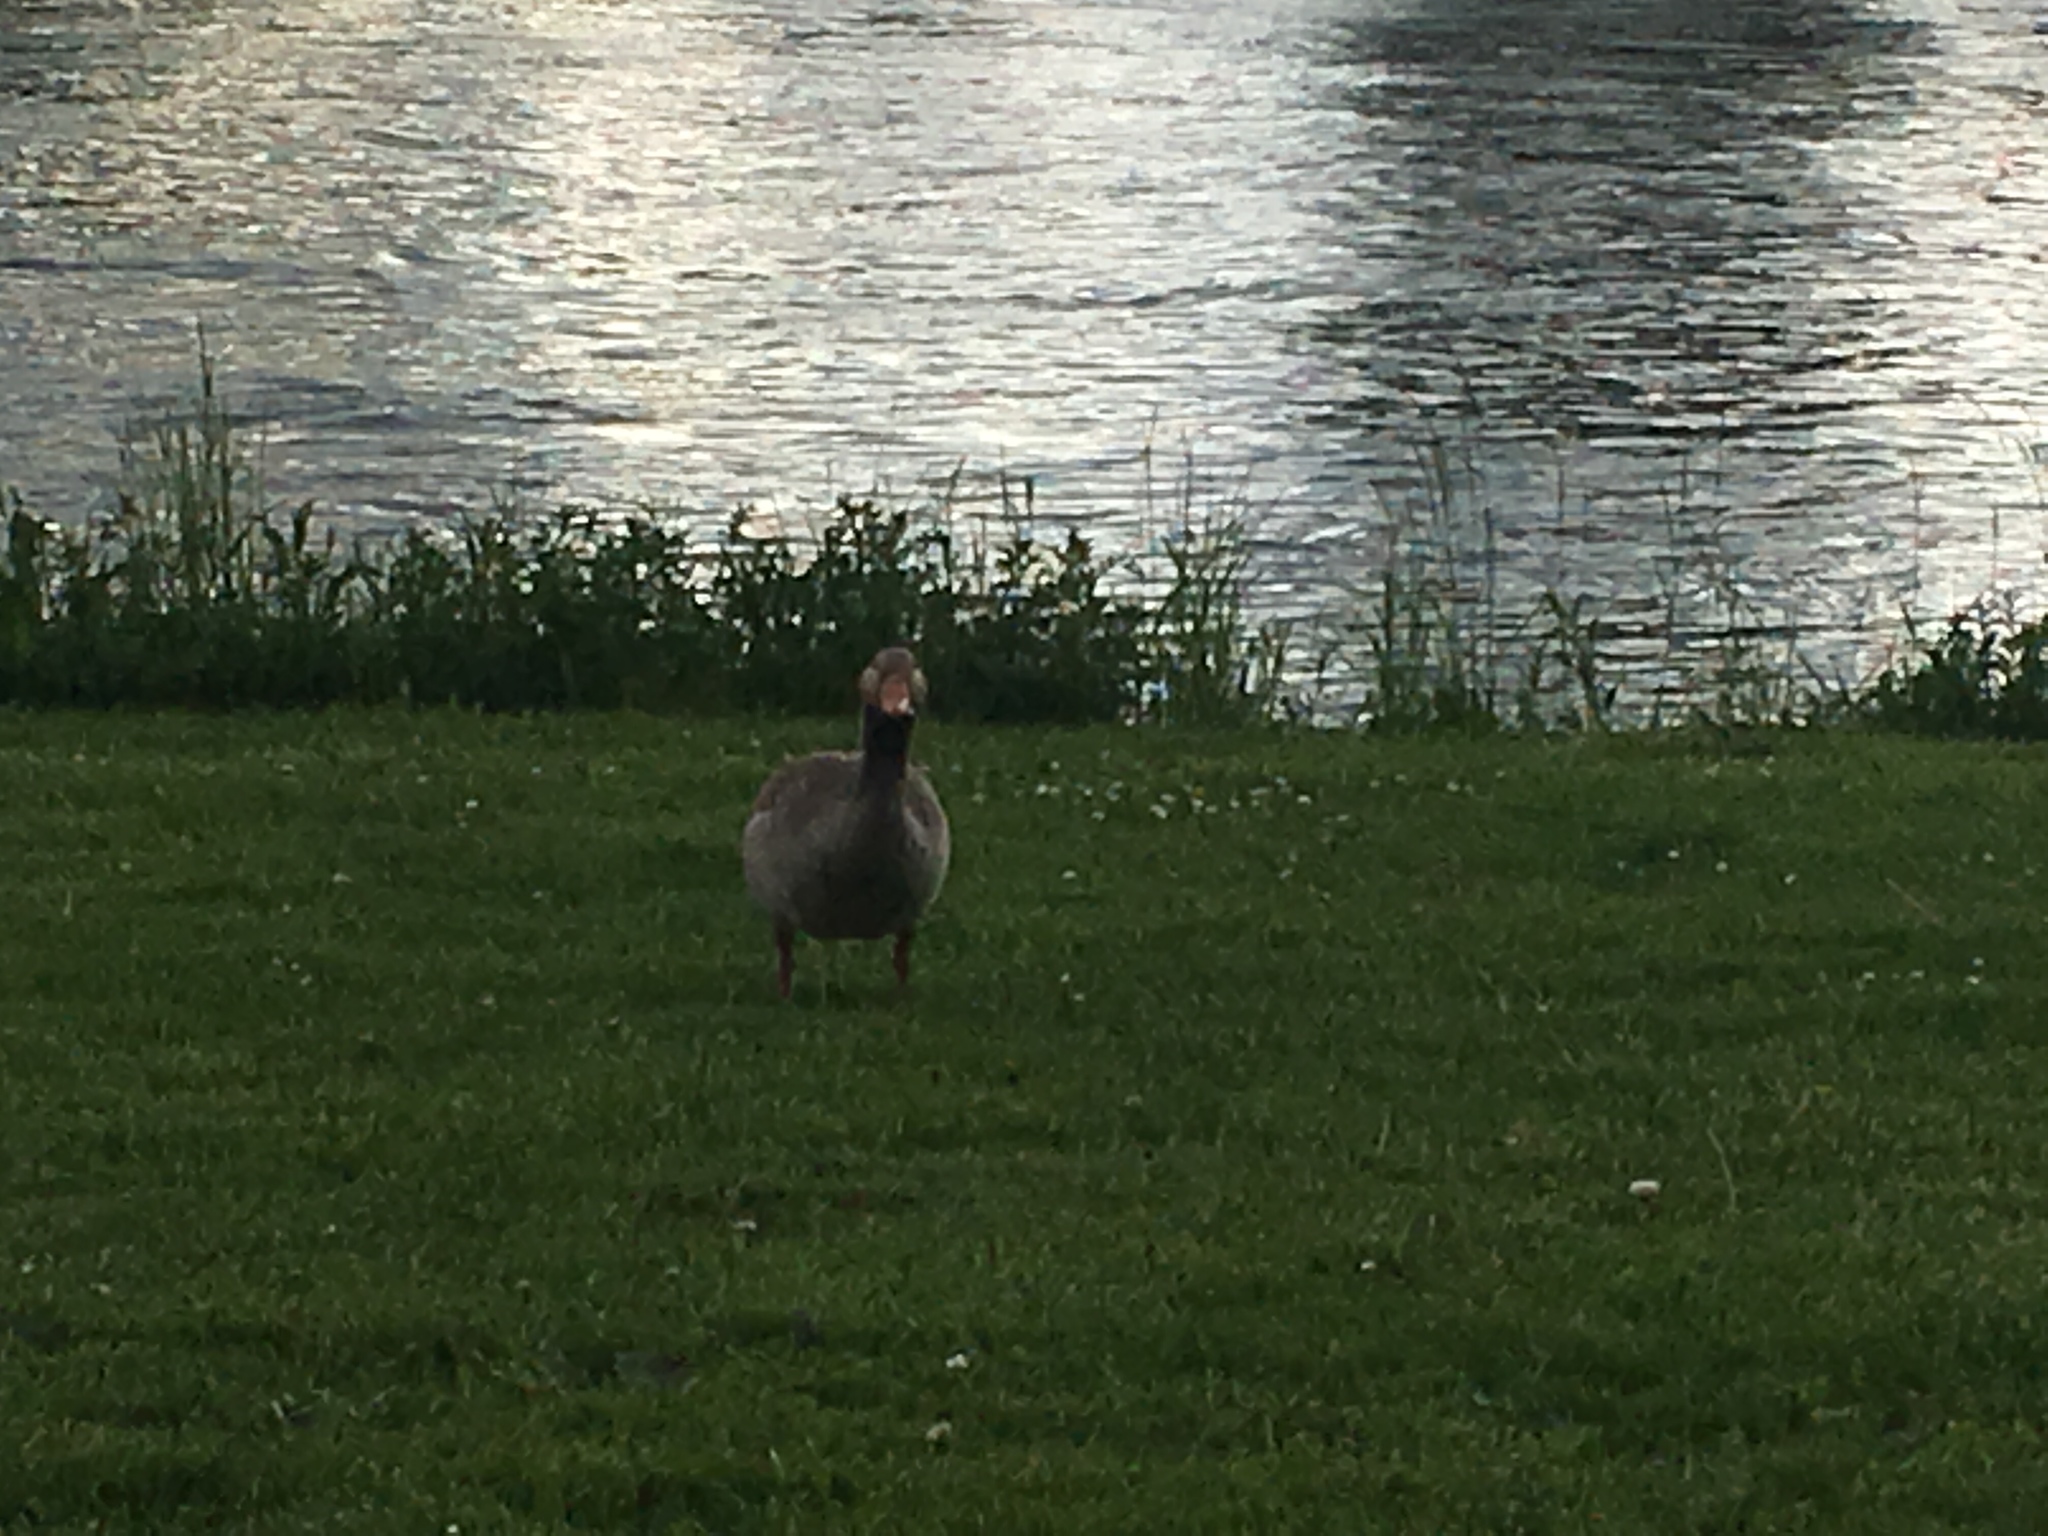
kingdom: Animalia
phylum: Chordata
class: Aves
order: Anseriformes
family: Anatidae
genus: Anser
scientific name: Anser anser
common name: Greylag goose
